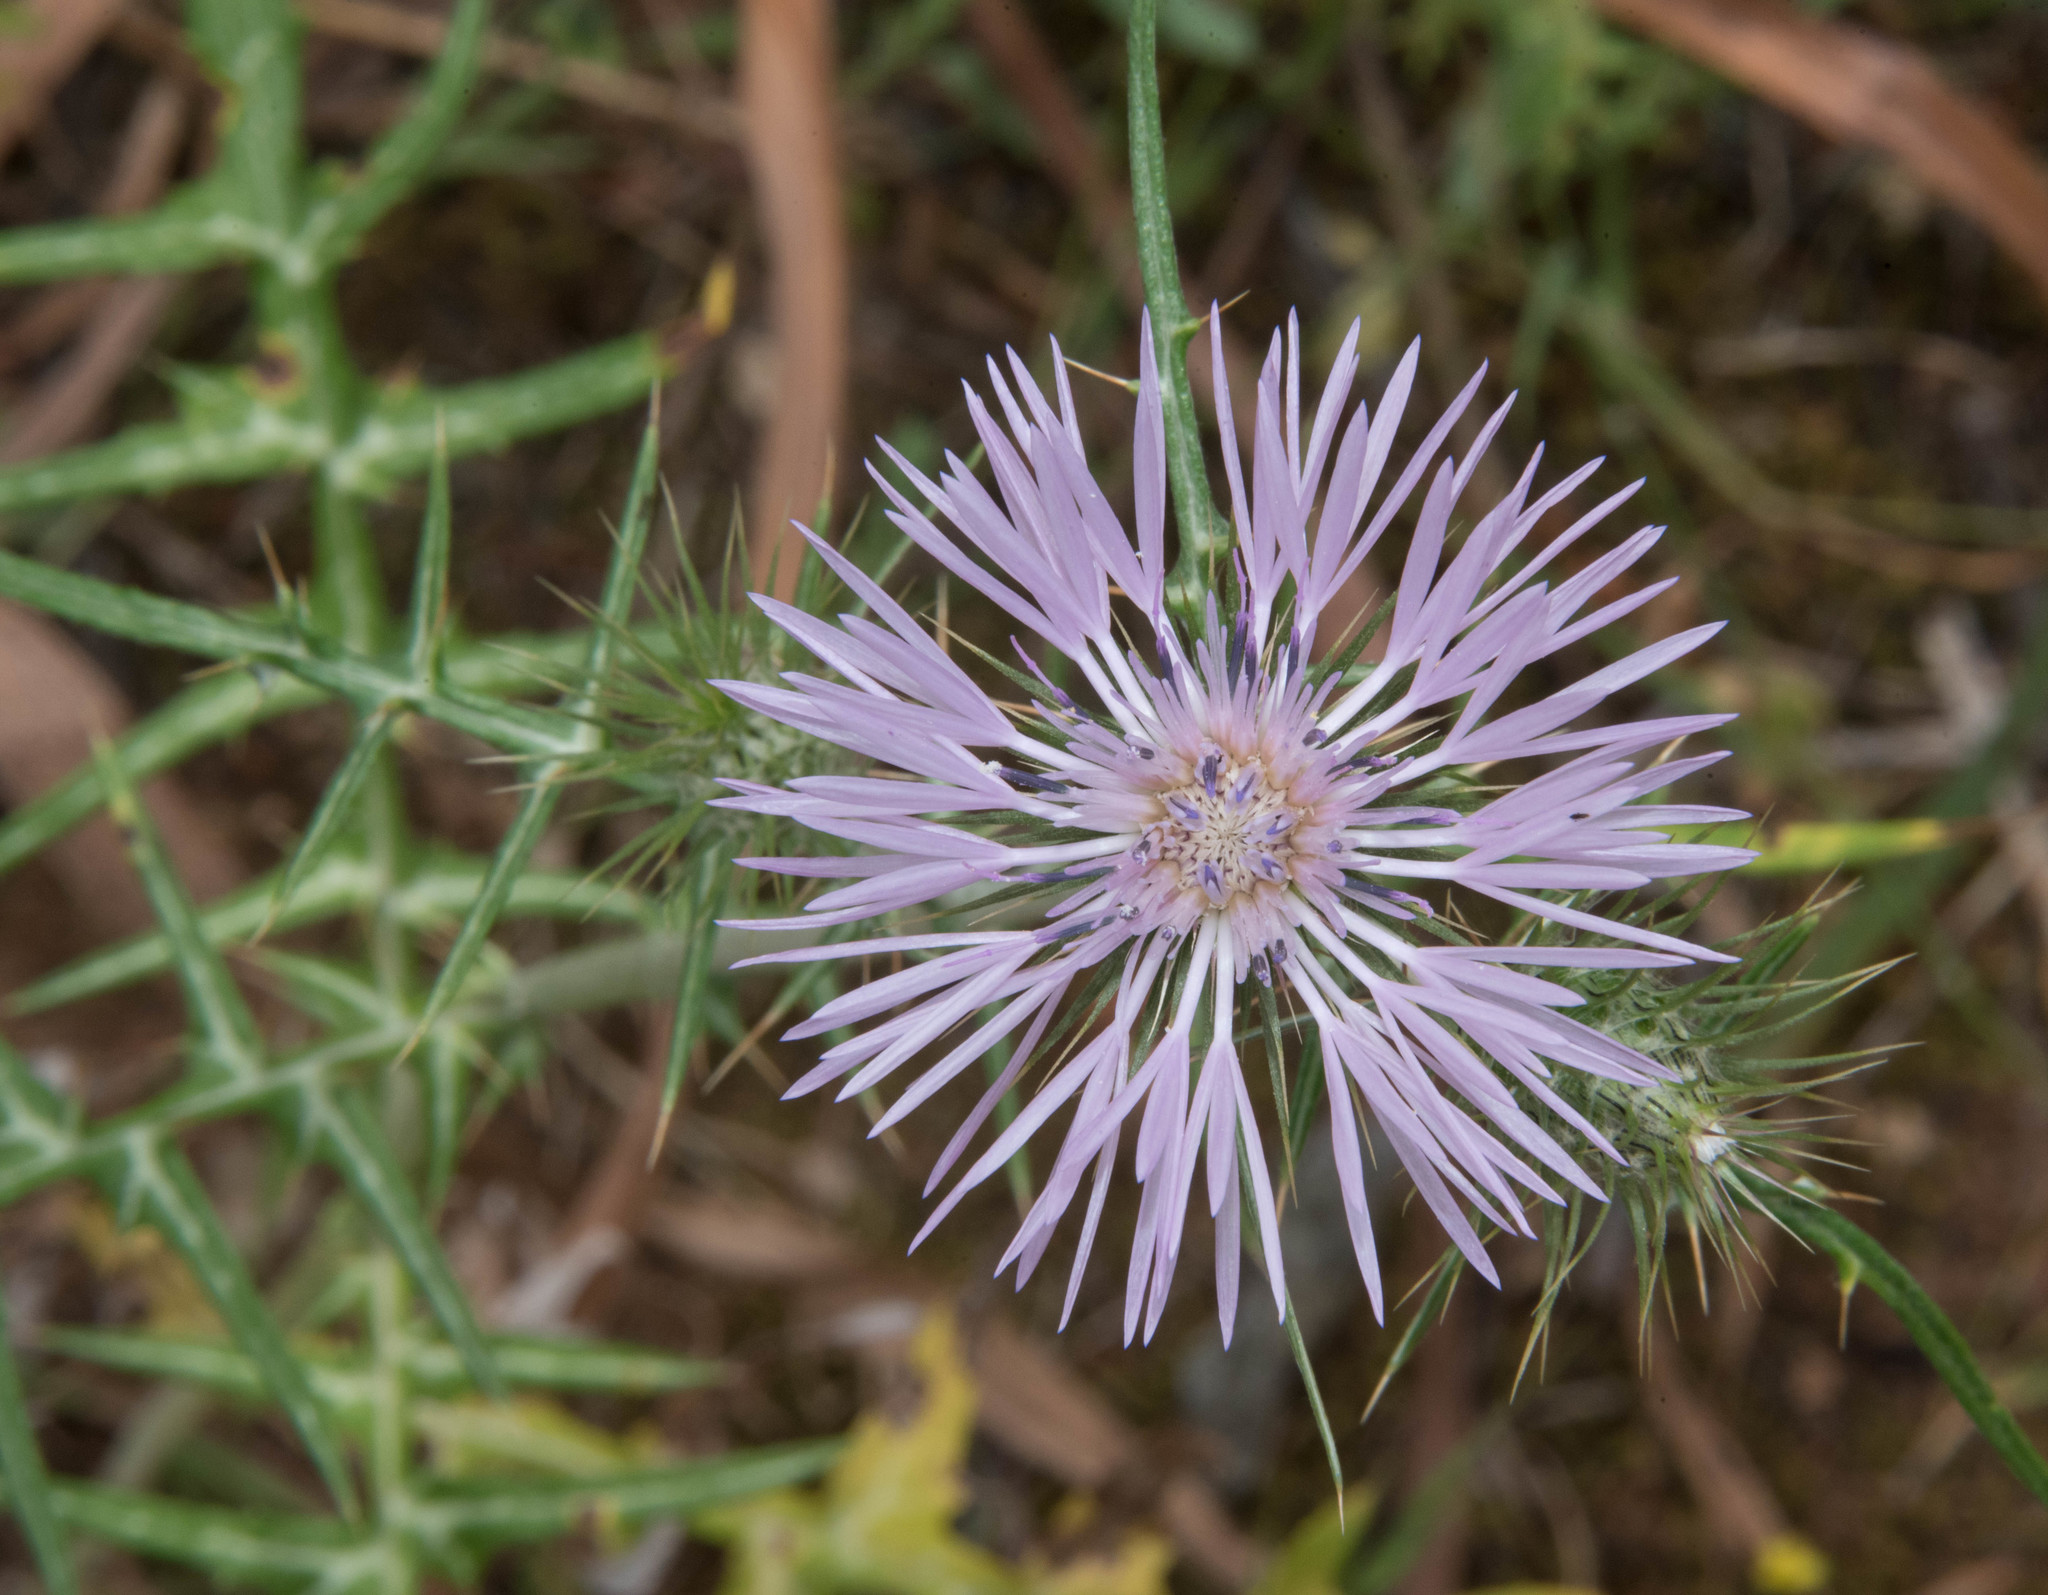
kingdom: Plantae
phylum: Tracheophyta
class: Magnoliopsida
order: Asterales
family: Asteraceae
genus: Galactites
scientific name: Galactites tomentosa
